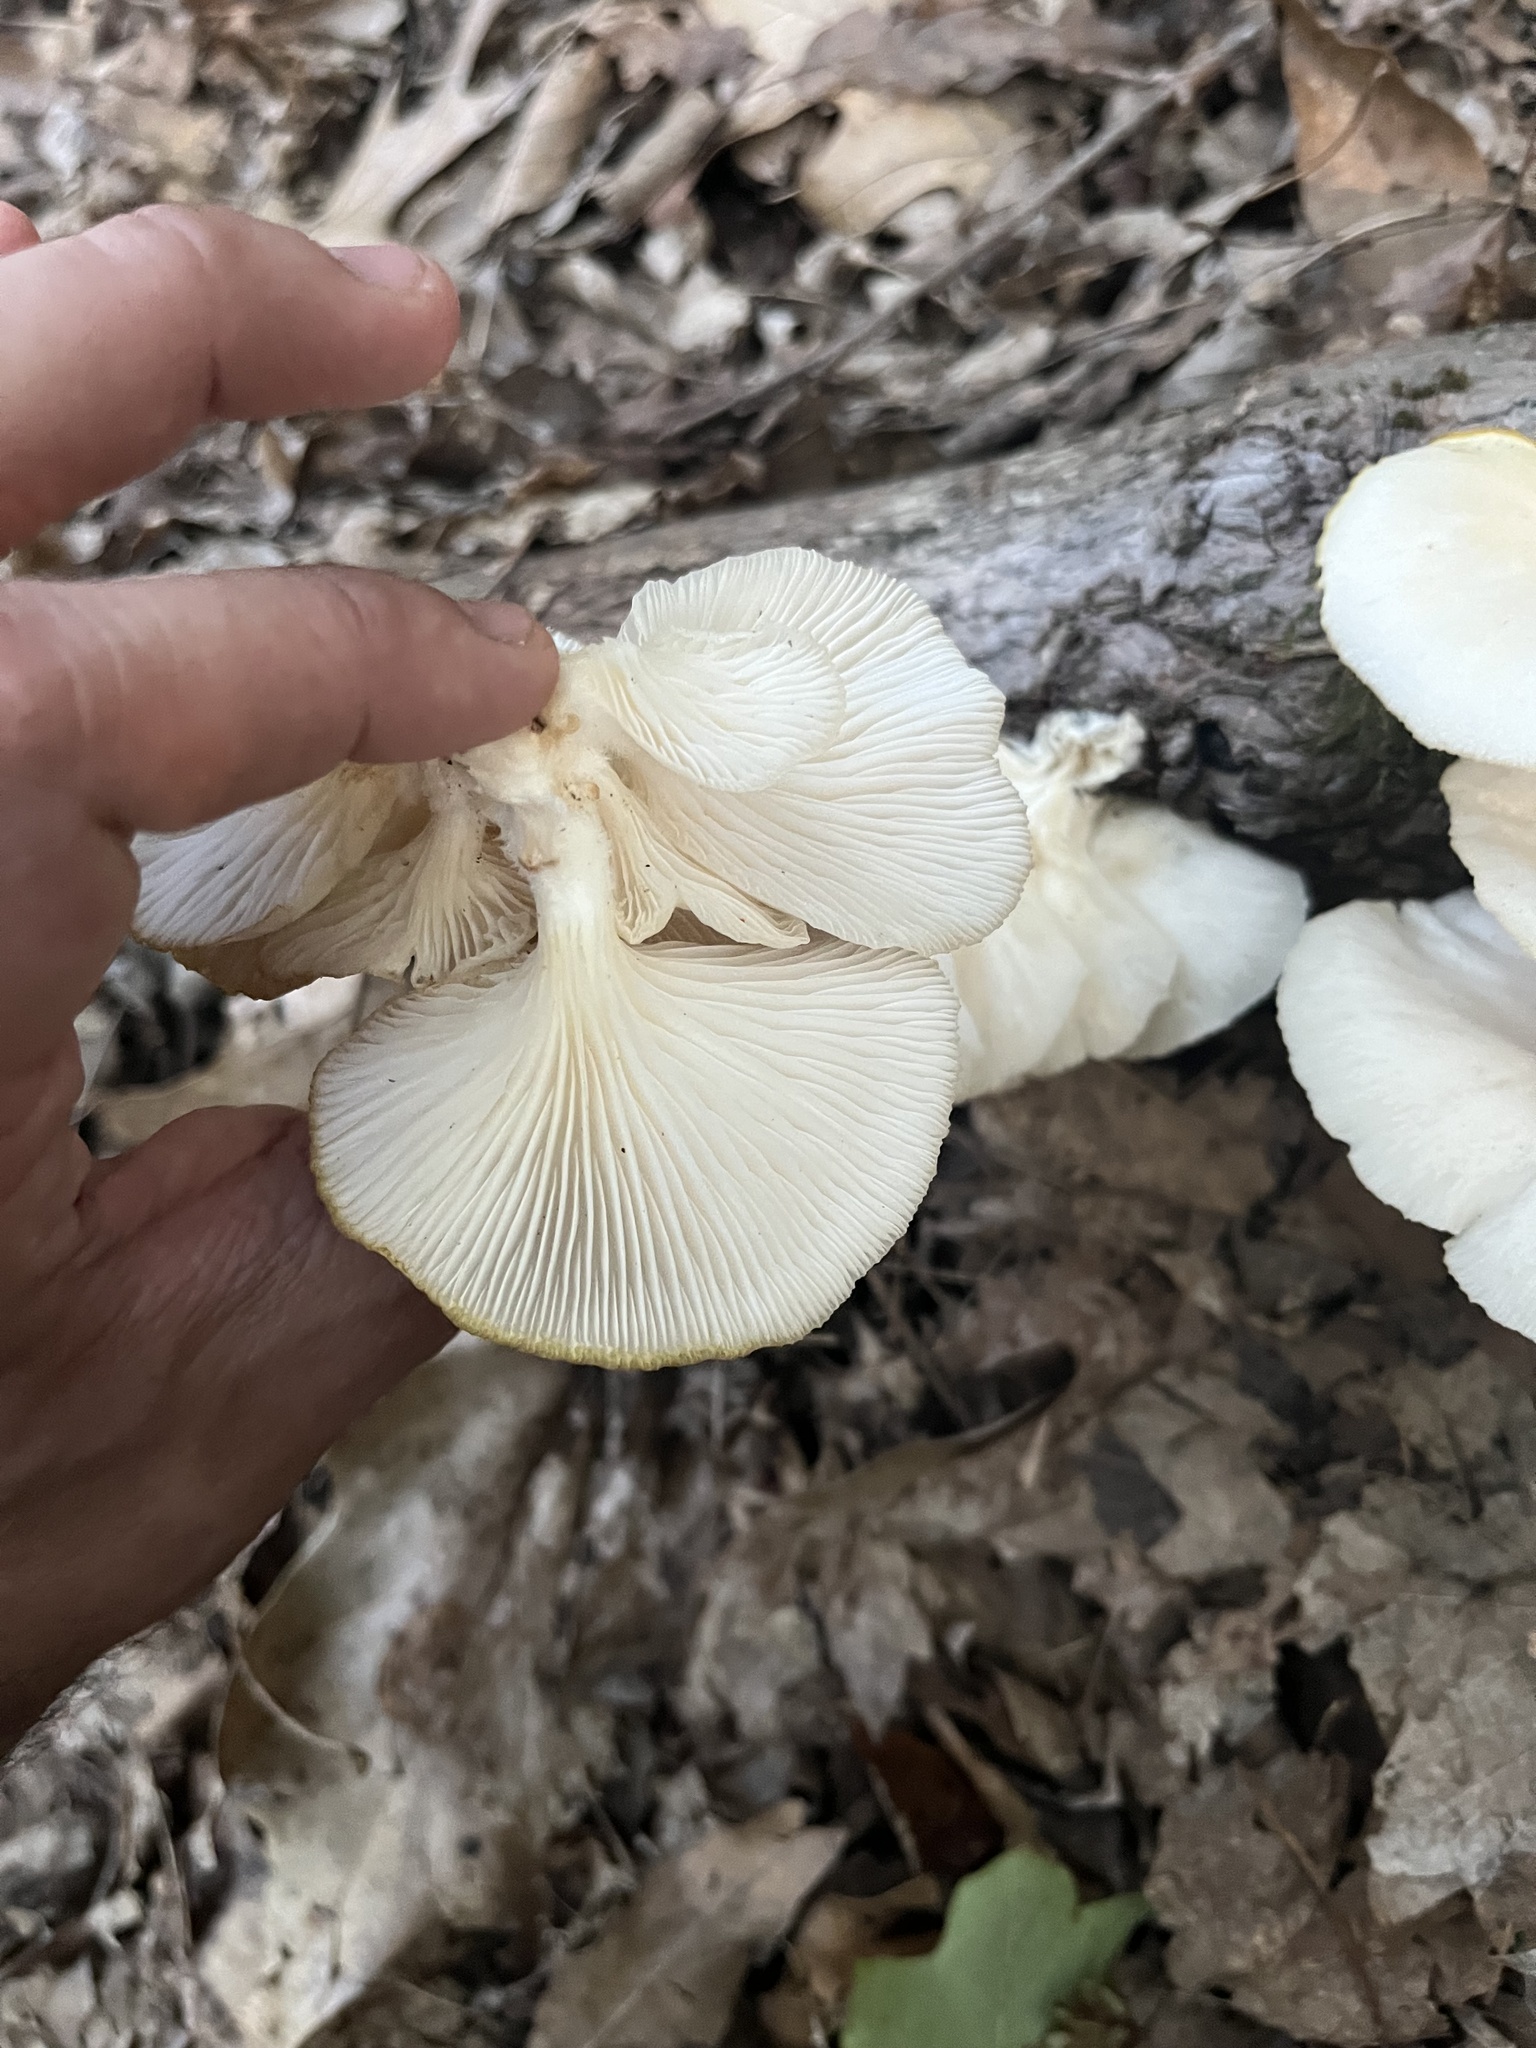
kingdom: Fungi
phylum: Basidiomycota
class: Agaricomycetes
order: Agaricales
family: Pleurotaceae
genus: Pleurotus
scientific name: Pleurotus pulmonarius
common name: Pale oyster
